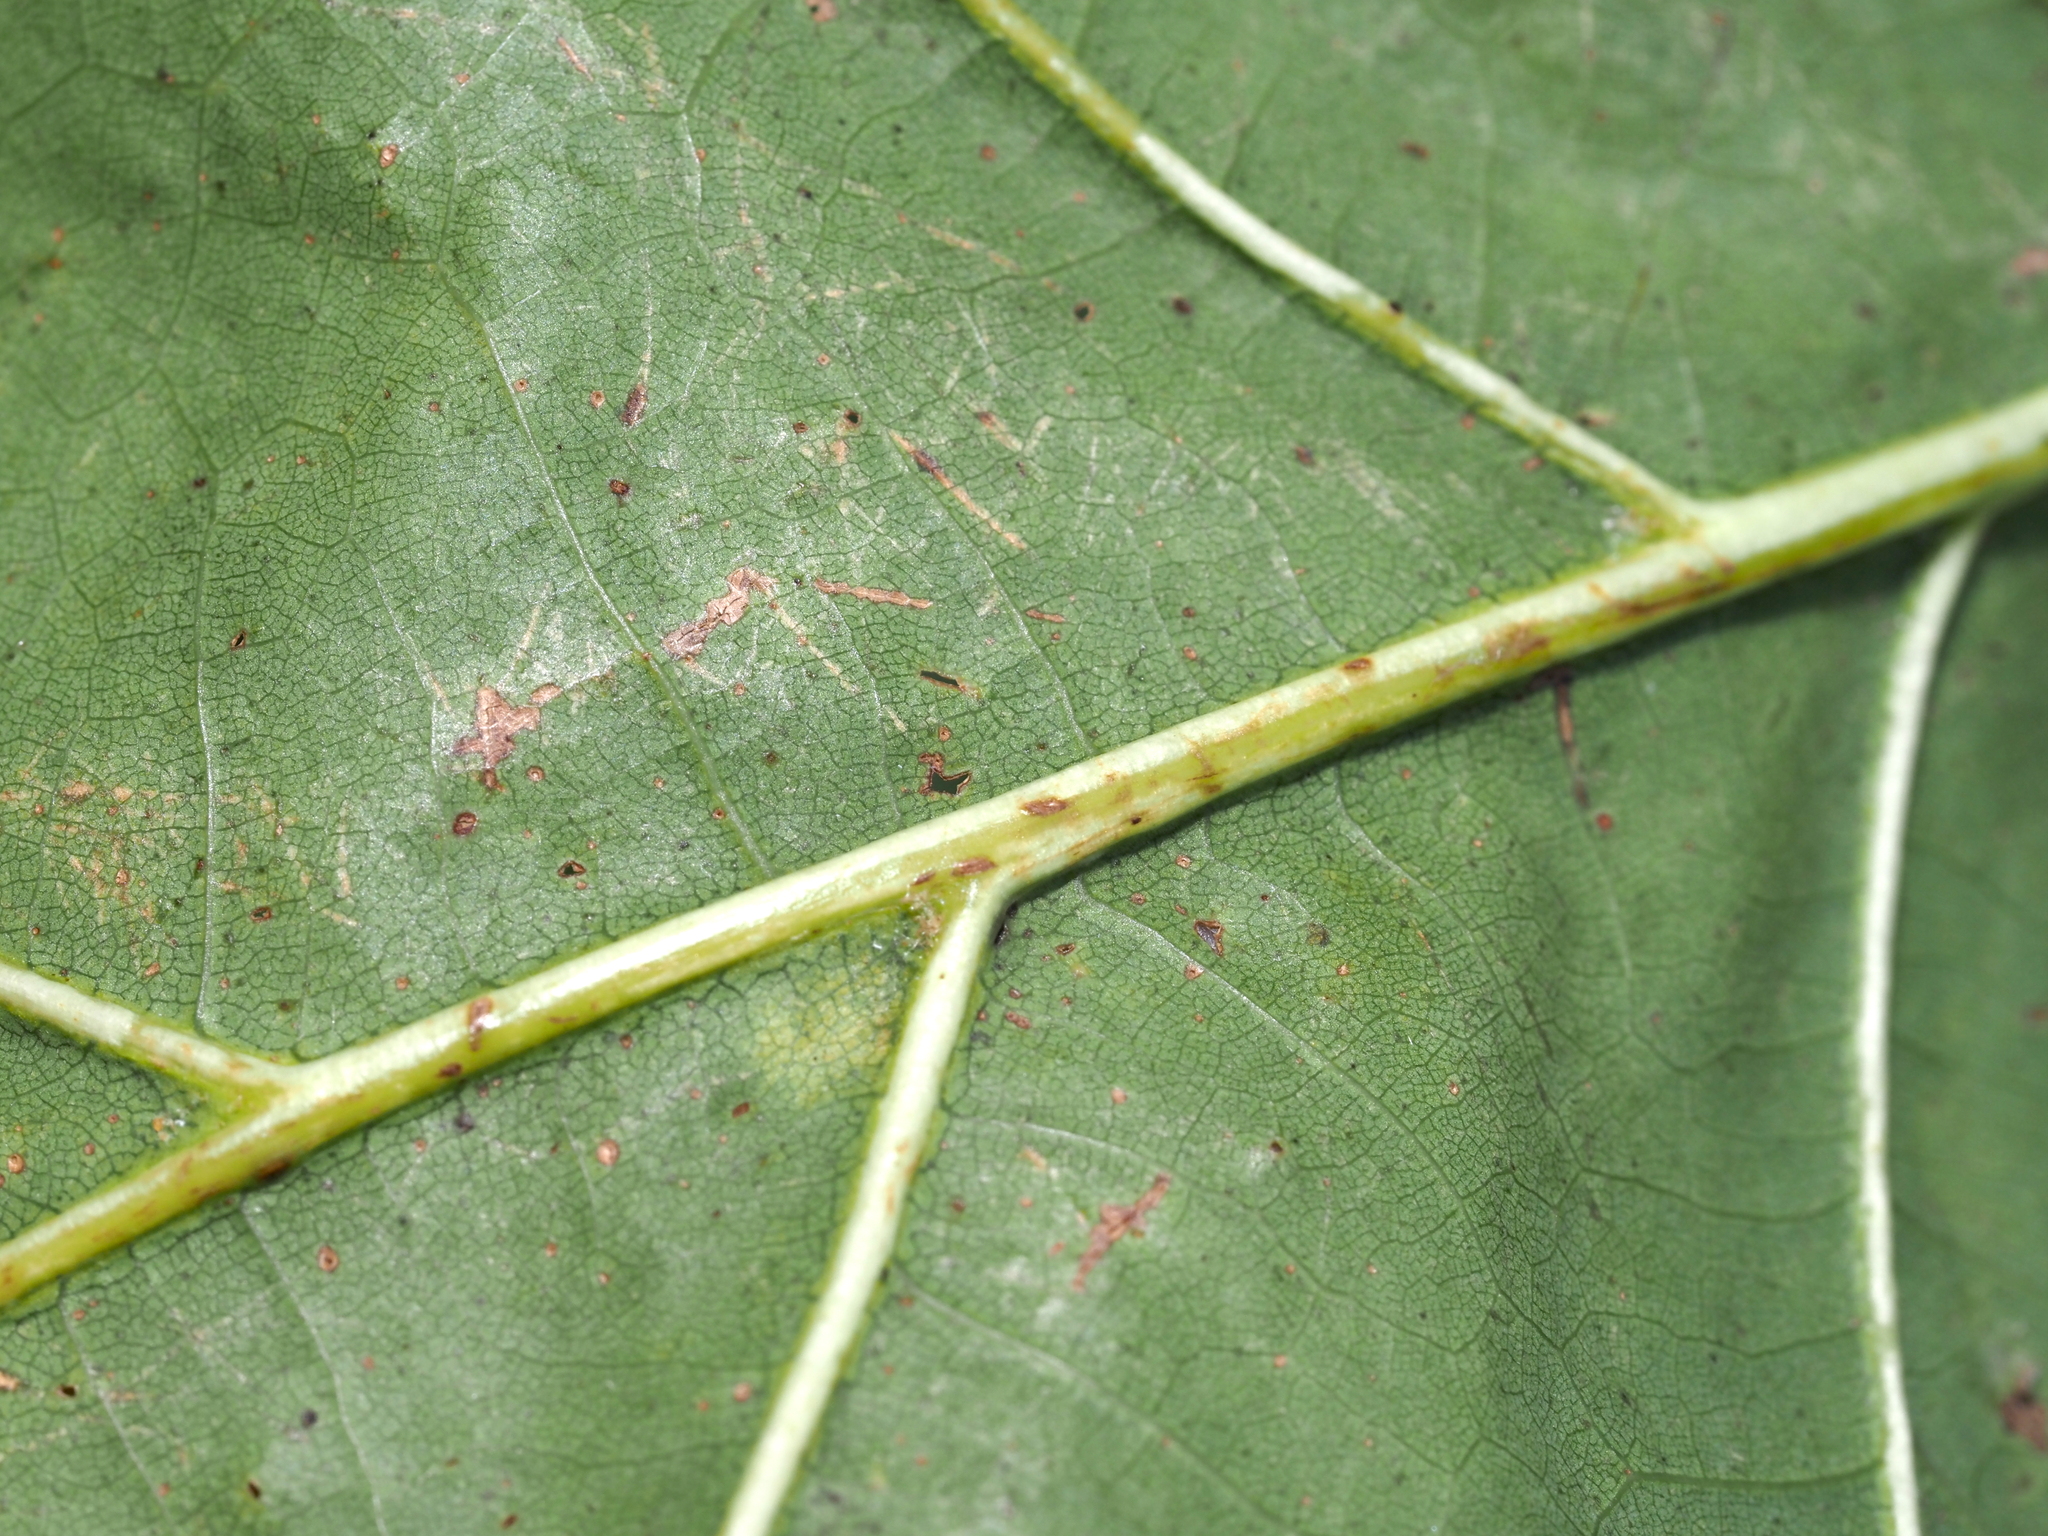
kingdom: Plantae
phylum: Tracheophyta
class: Magnoliopsida
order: Fagales
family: Fagaceae
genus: Quercus
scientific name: Quercus rubra
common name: Red oak
